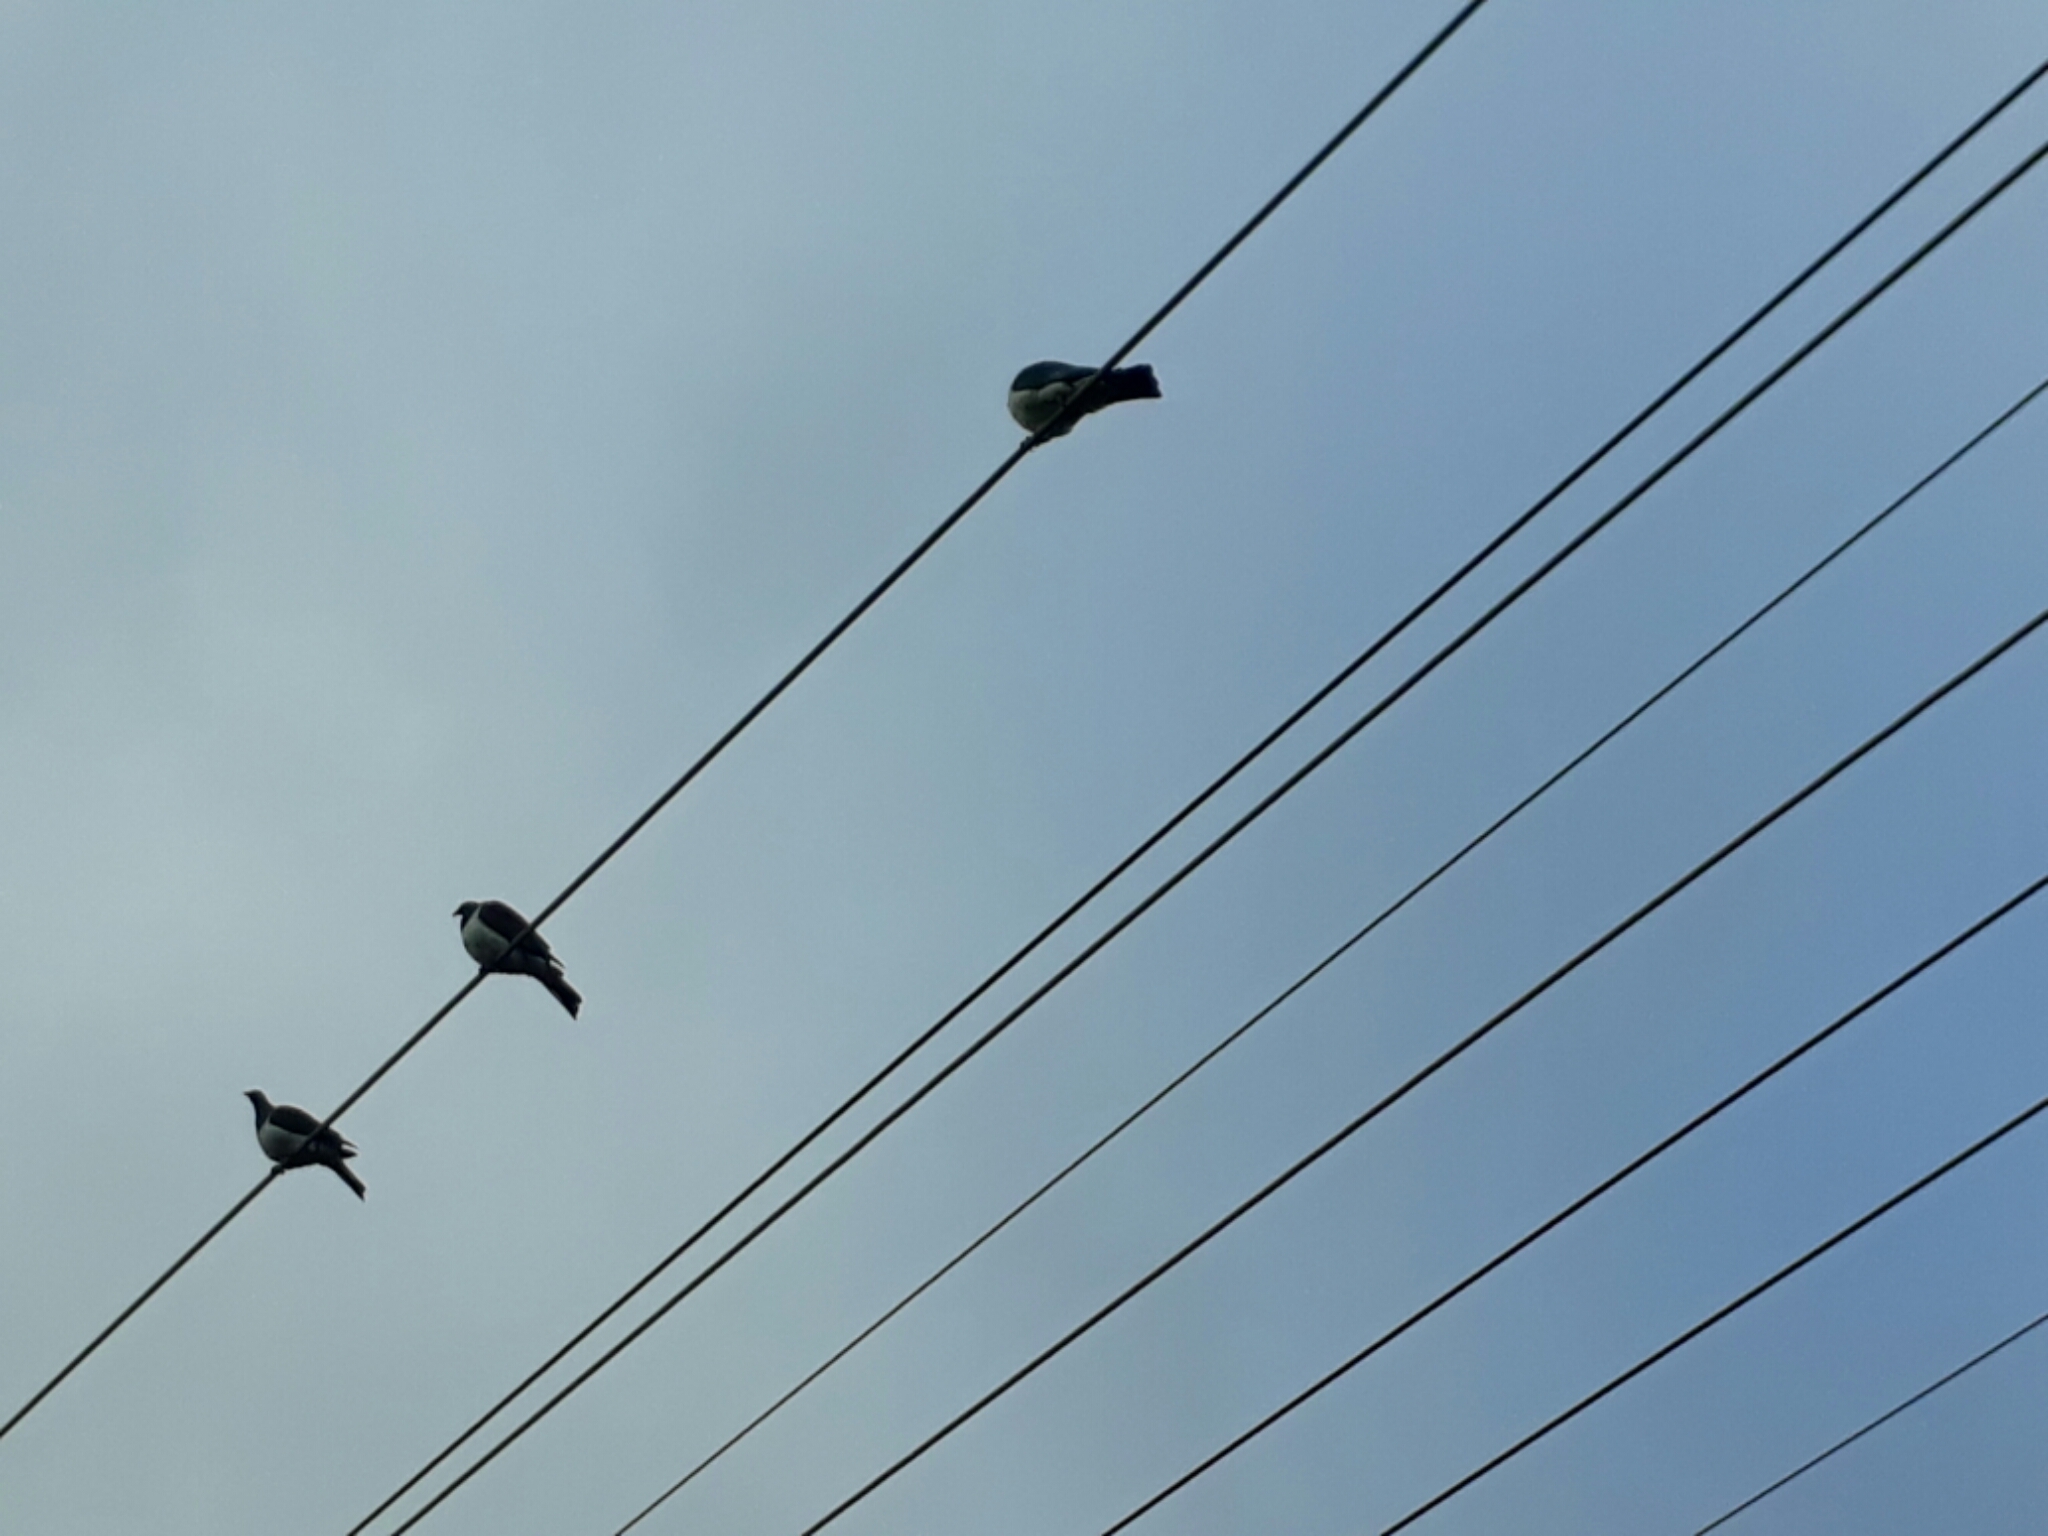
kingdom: Animalia
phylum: Chordata
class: Aves
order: Columbiformes
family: Columbidae
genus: Hemiphaga
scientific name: Hemiphaga novaeseelandiae
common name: New zealand pigeon
